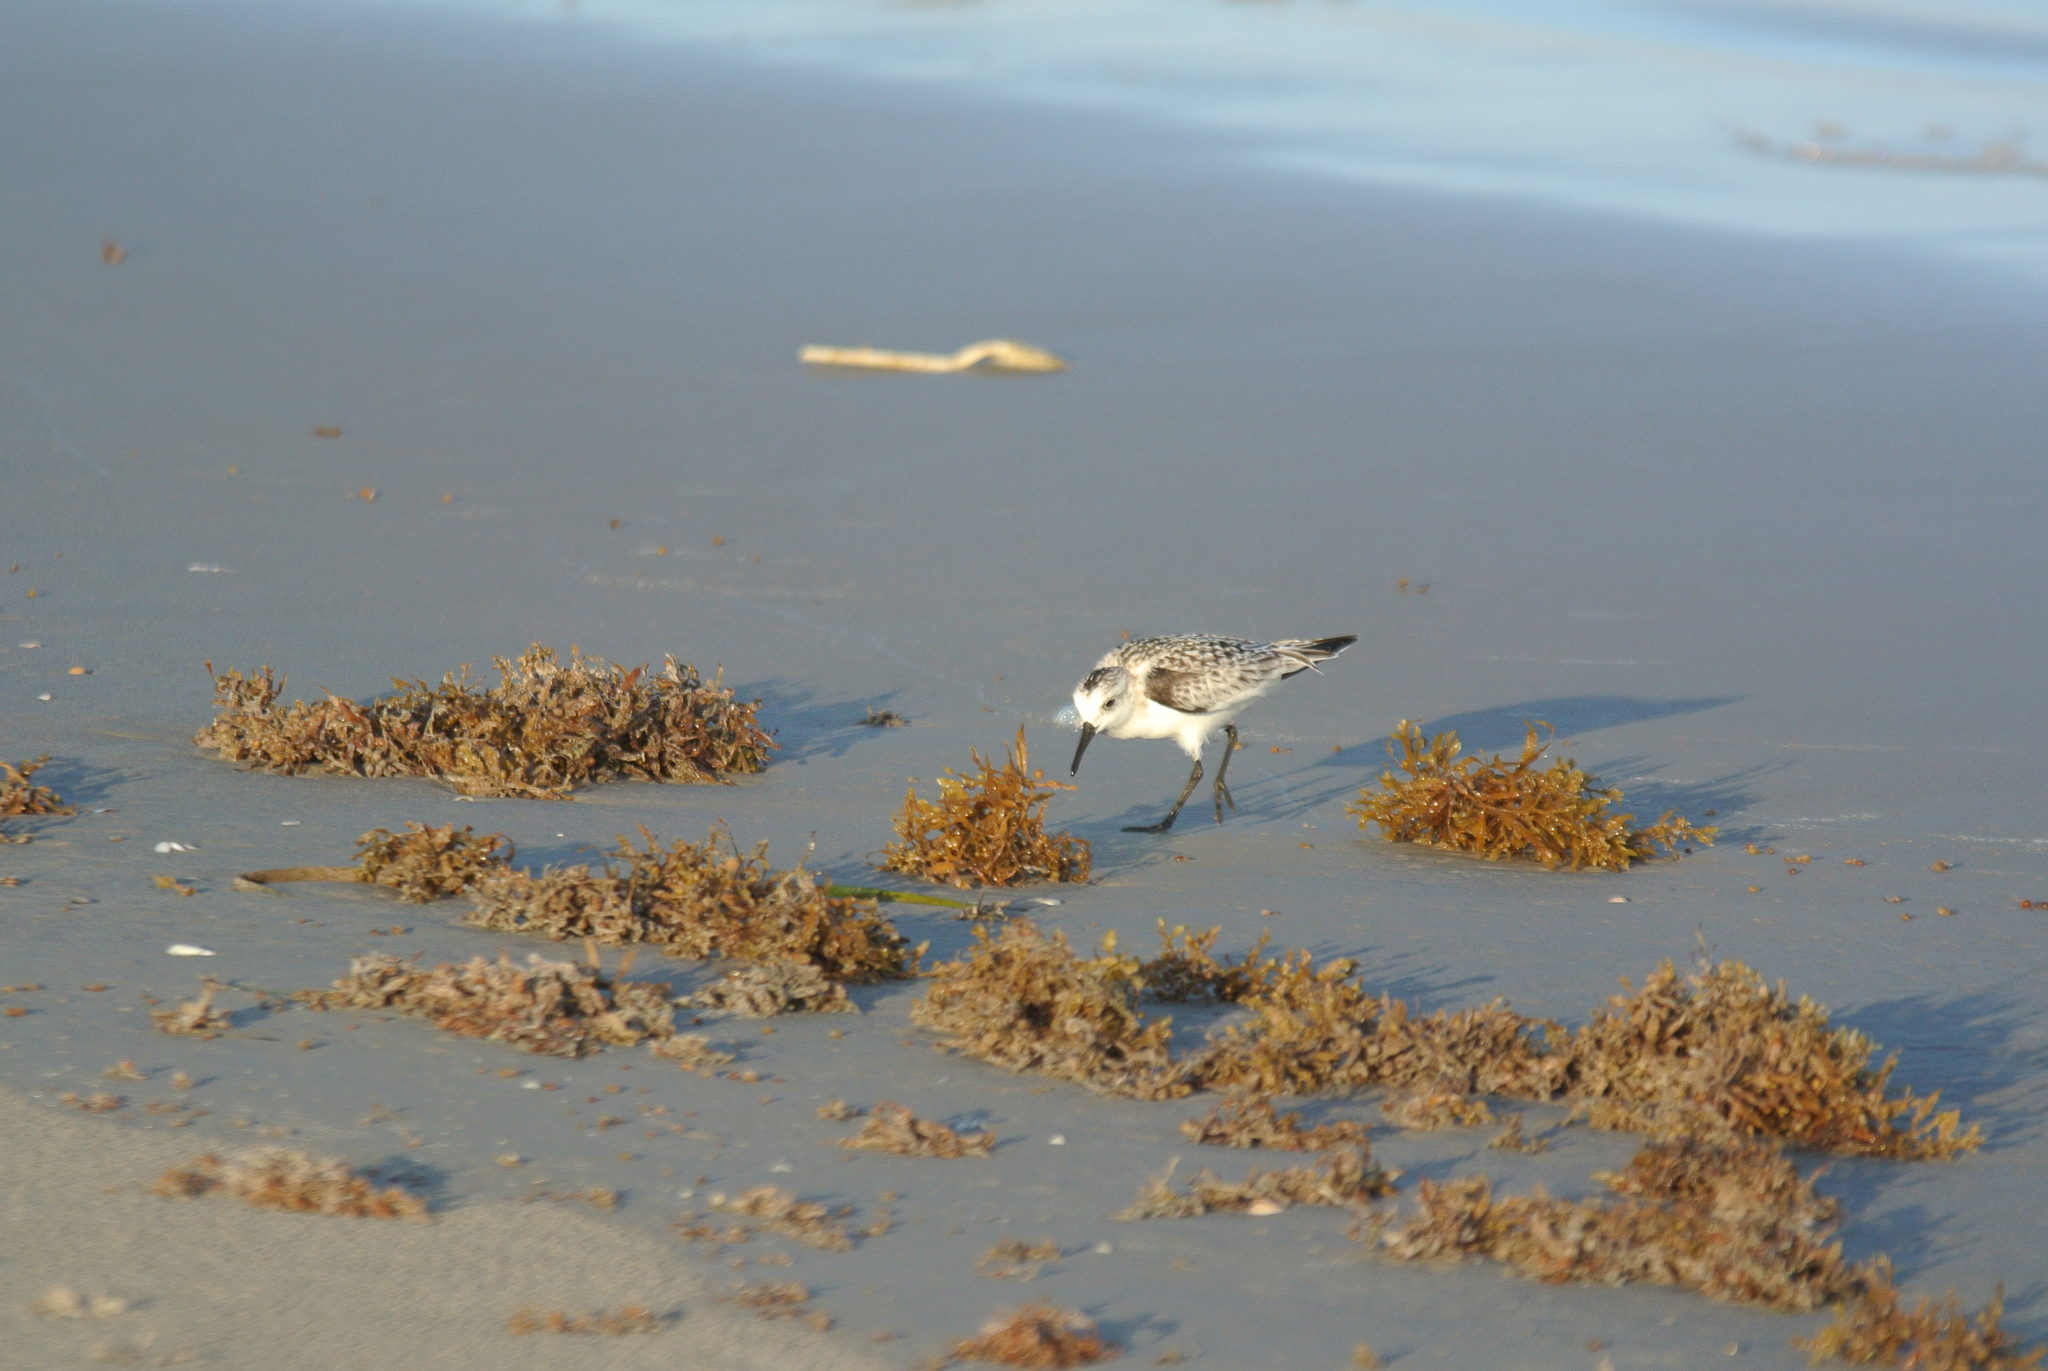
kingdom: Animalia
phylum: Chordata
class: Aves
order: Charadriiformes
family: Scolopacidae
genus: Calidris
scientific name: Calidris alba
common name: Sanderling
